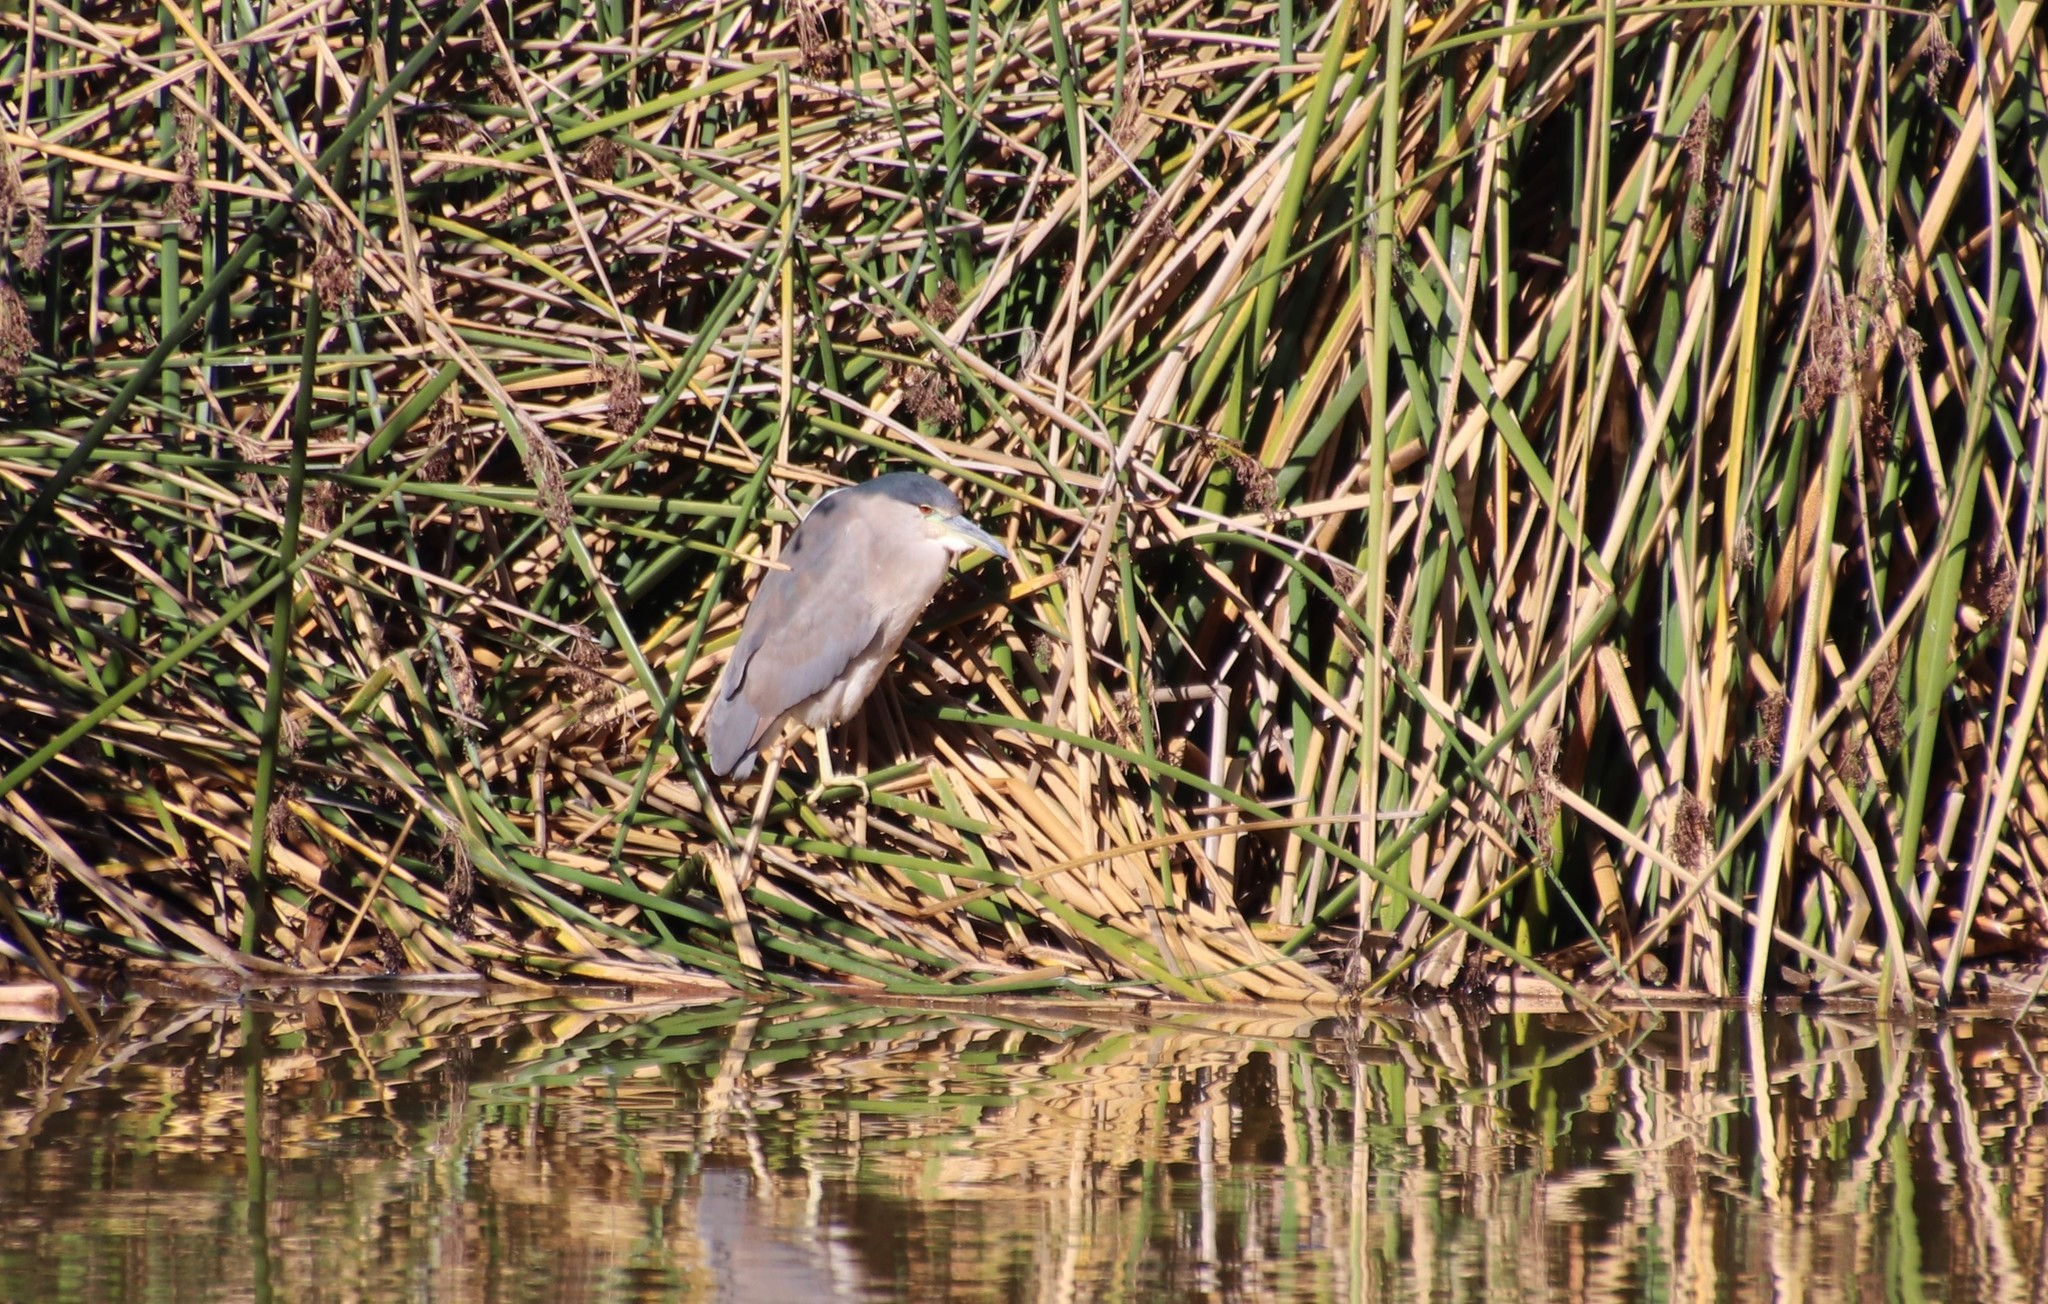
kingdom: Animalia
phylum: Chordata
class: Aves
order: Pelecaniformes
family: Ardeidae
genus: Nycticorax
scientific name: Nycticorax nycticorax
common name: Black-crowned night heron
